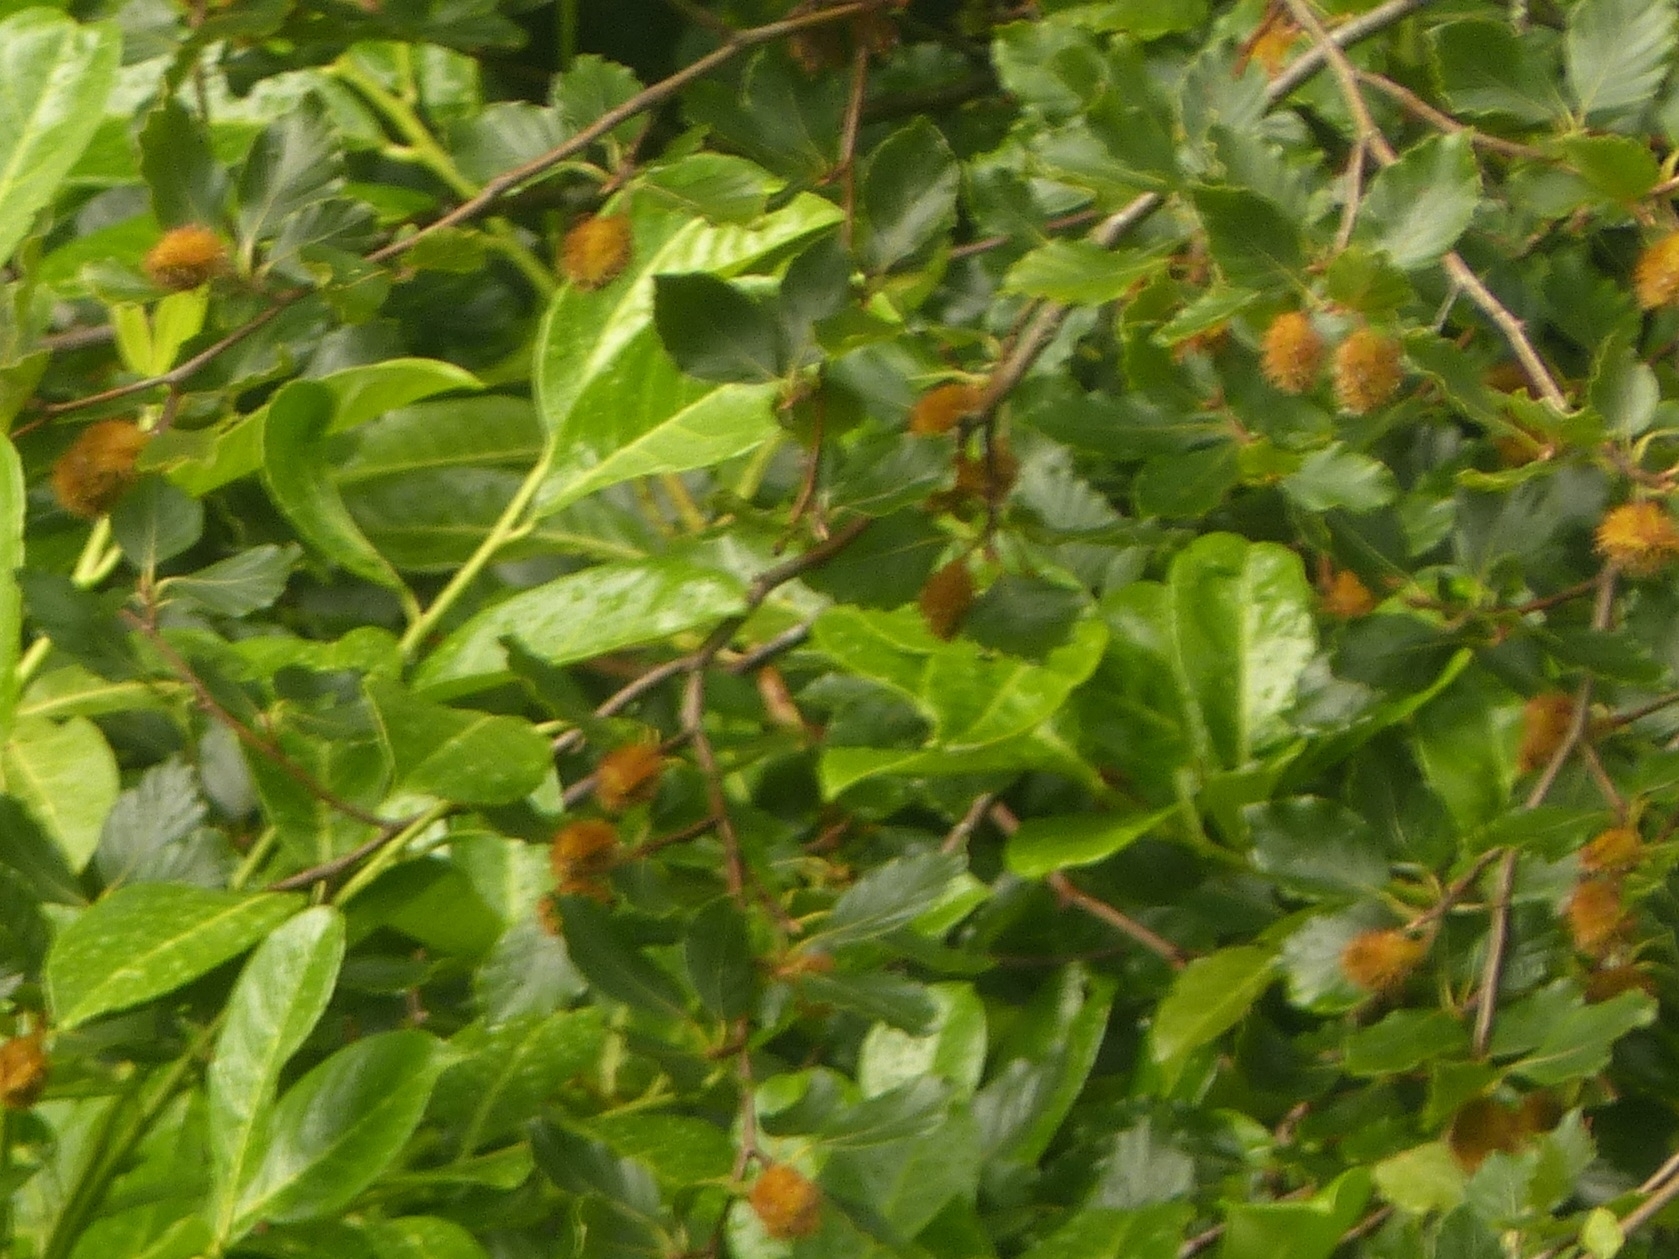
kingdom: Plantae
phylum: Tracheophyta
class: Magnoliopsida
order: Fagales
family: Fagaceae
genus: Fagus
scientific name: Fagus sylvatica
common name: Beech
